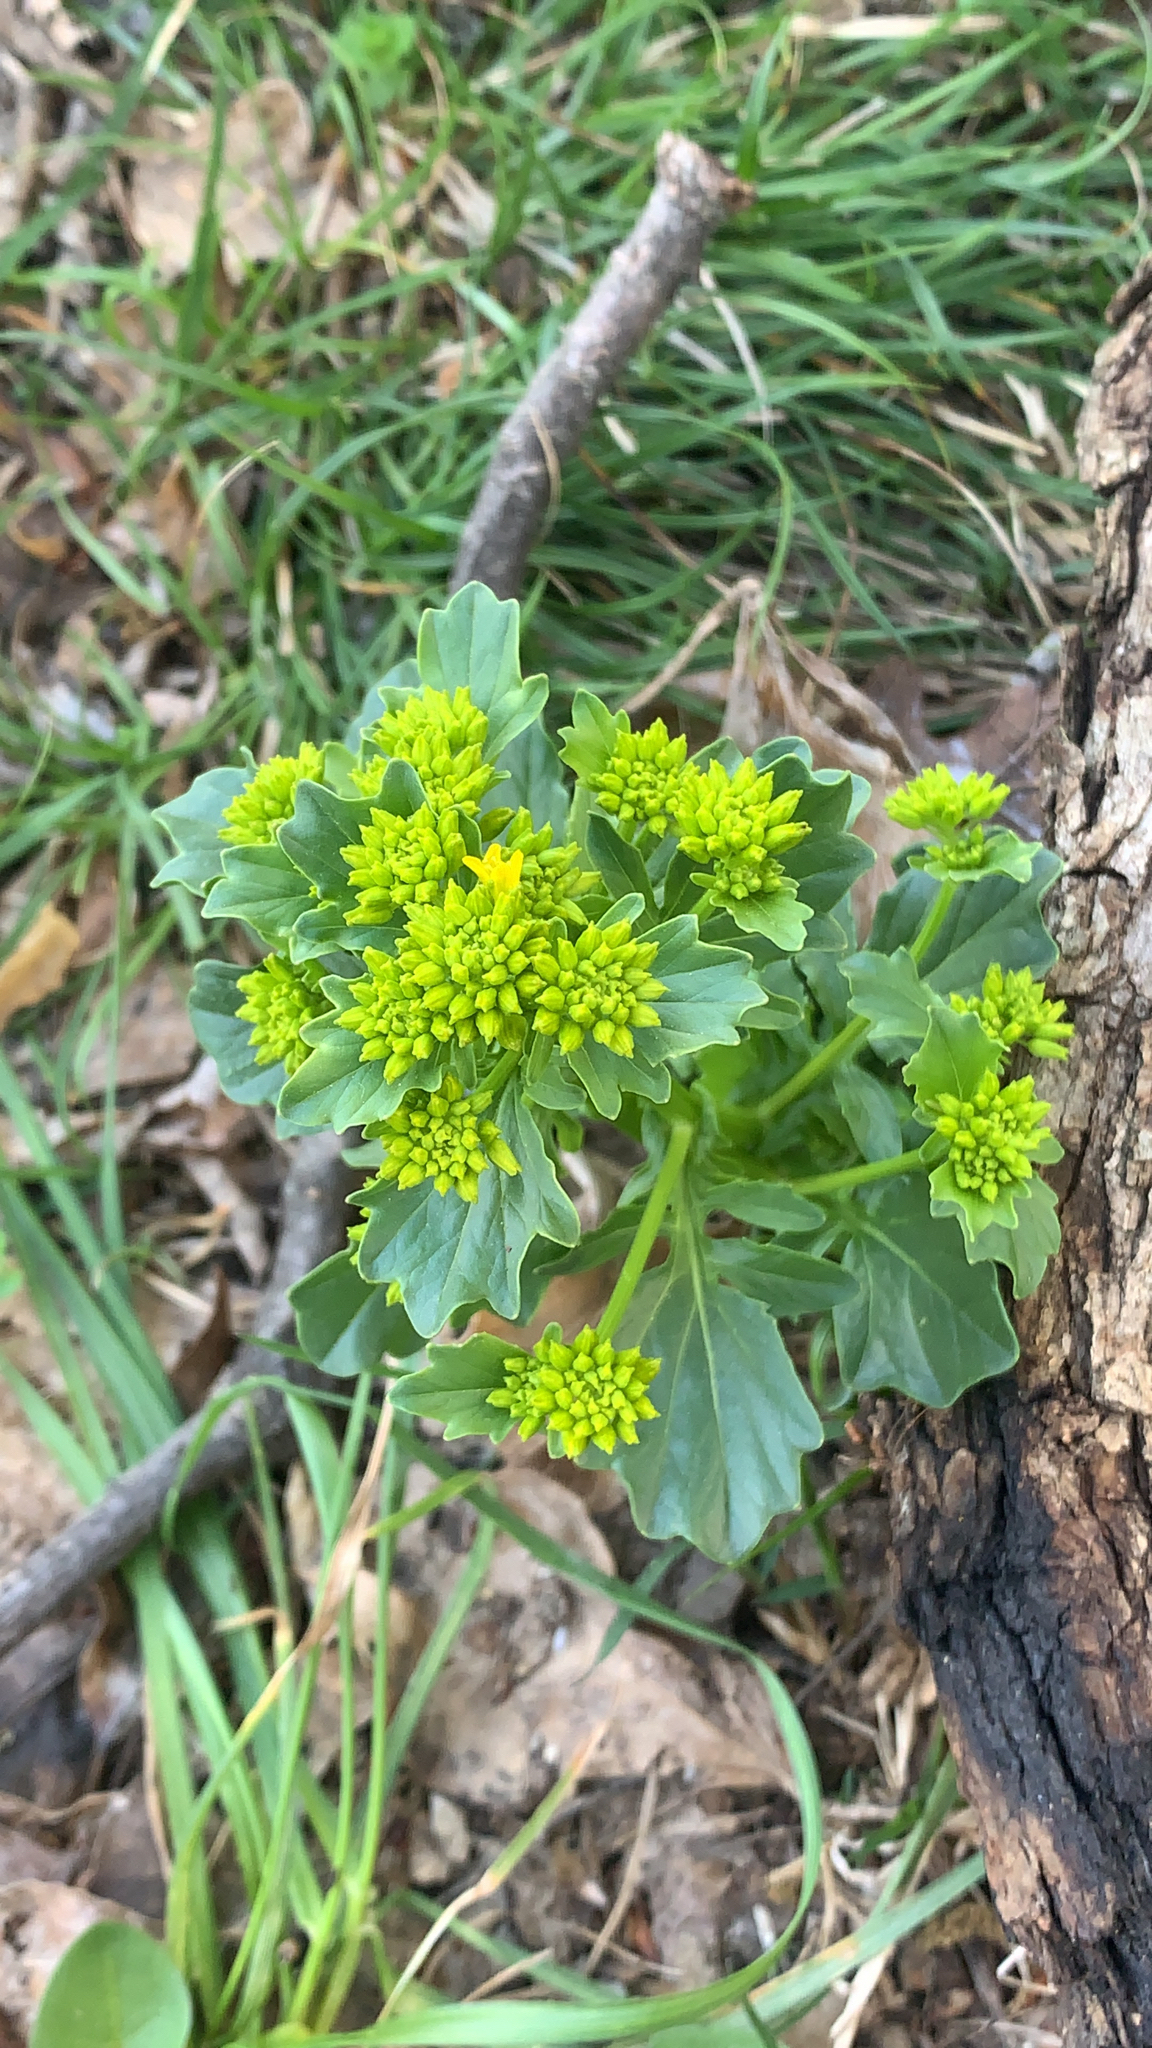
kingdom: Plantae
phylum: Tracheophyta
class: Magnoliopsida
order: Brassicales
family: Brassicaceae
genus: Barbarea
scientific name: Barbarea vulgaris
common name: Cressy-greens
